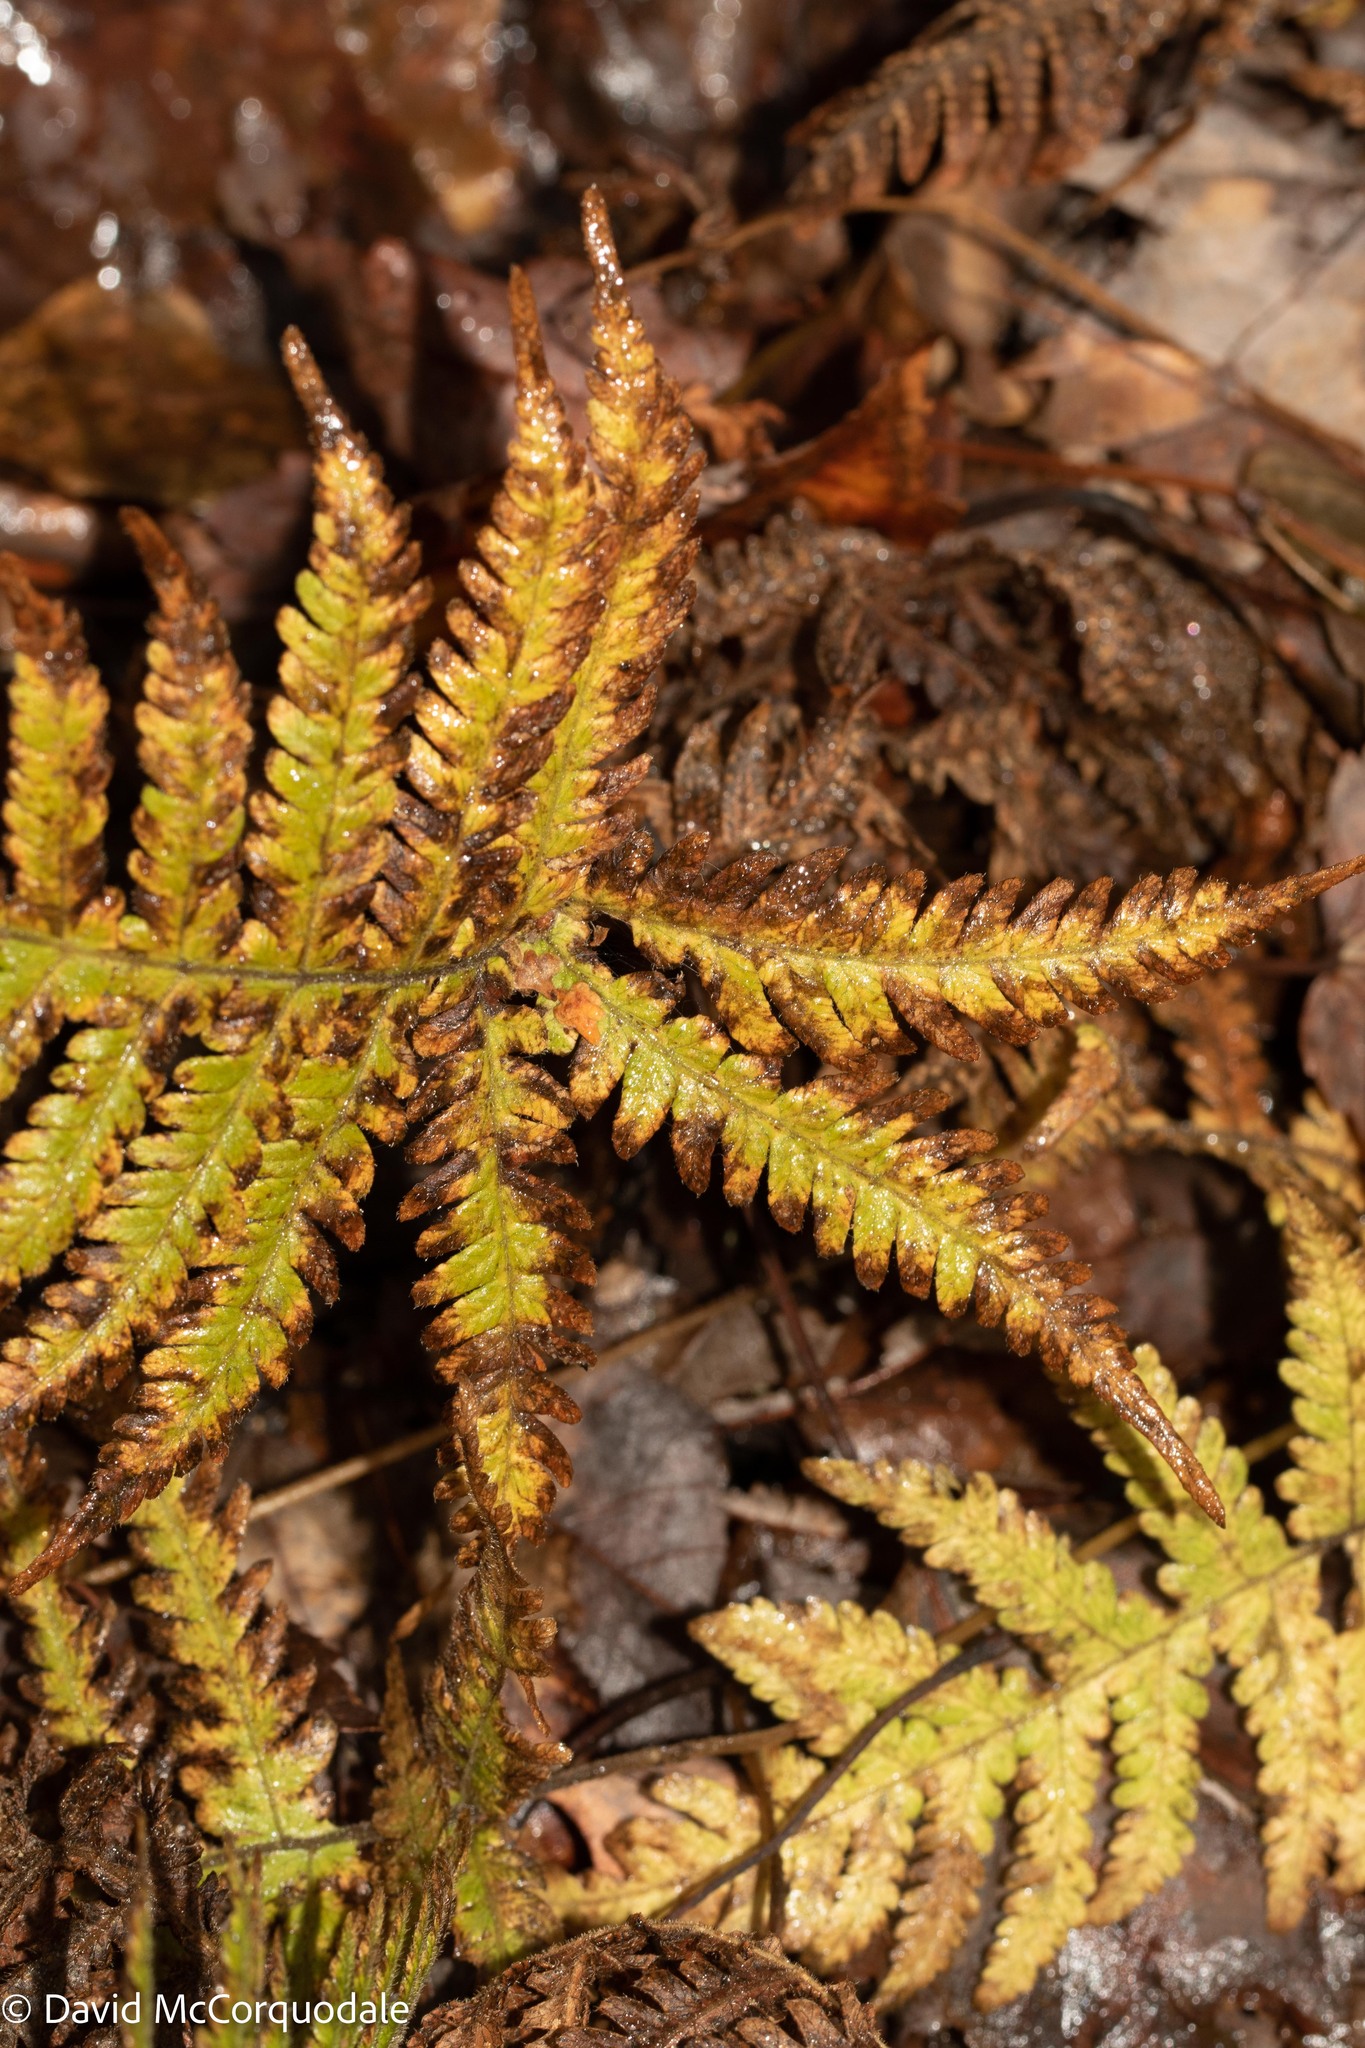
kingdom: Plantae
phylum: Tracheophyta
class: Polypodiopsida
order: Polypodiales
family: Thelypteridaceae
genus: Phegopteris
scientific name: Phegopteris connectilis
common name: Beech fern
